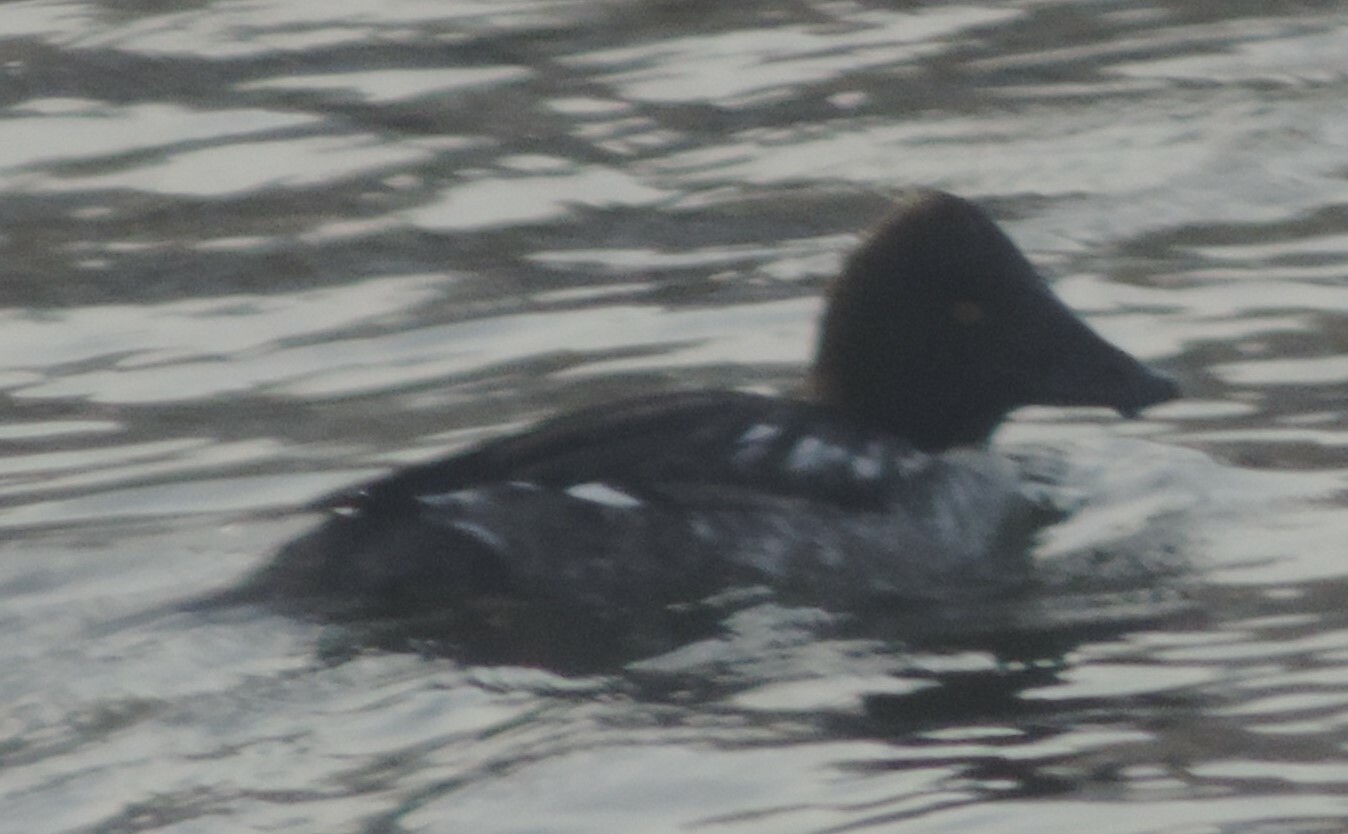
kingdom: Animalia
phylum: Chordata
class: Aves
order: Anseriformes
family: Anatidae
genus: Bucephala
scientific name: Bucephala clangula
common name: Common goldeneye
